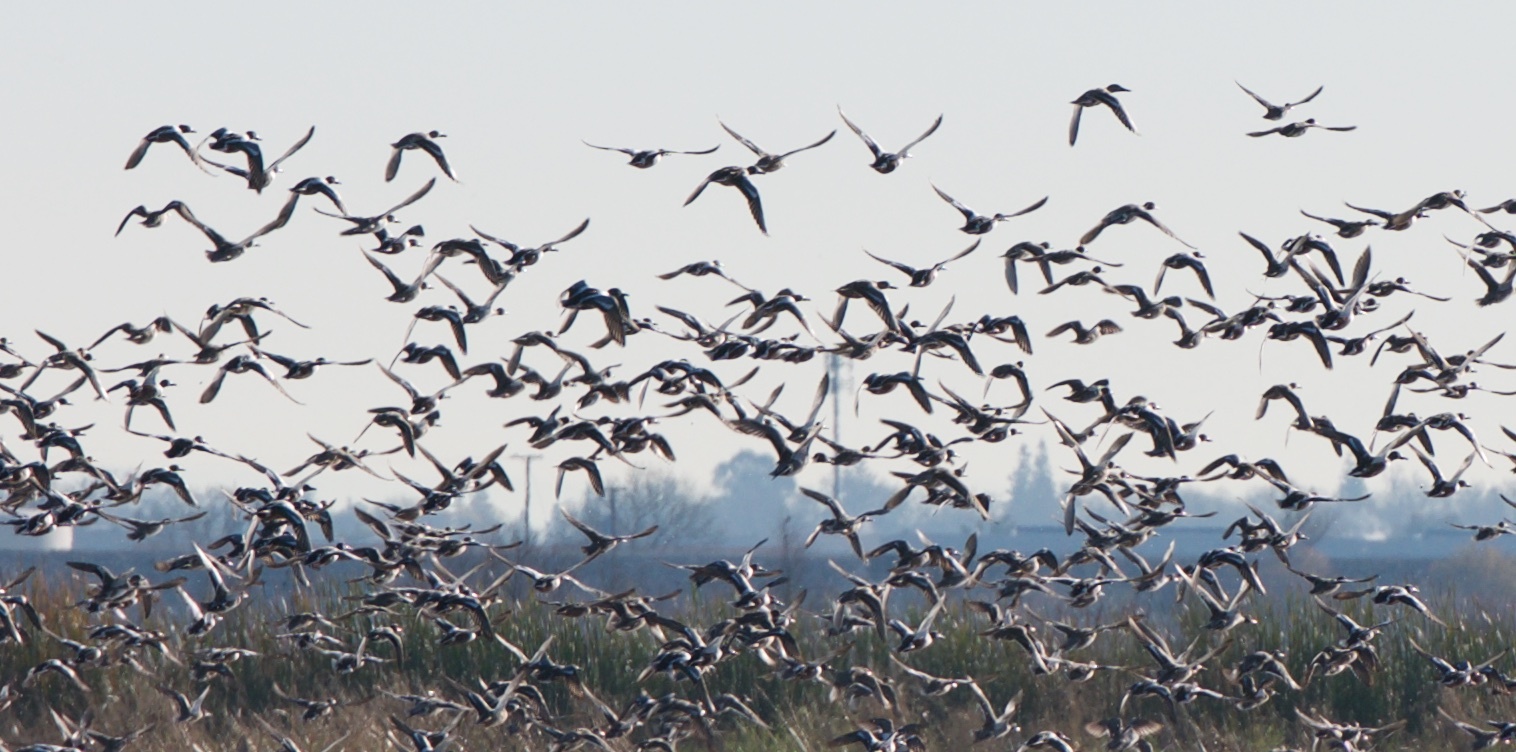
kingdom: Animalia
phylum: Chordata
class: Aves
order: Anseriformes
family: Anatidae
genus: Spatula
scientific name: Spatula clypeata
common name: Northern shoveler
